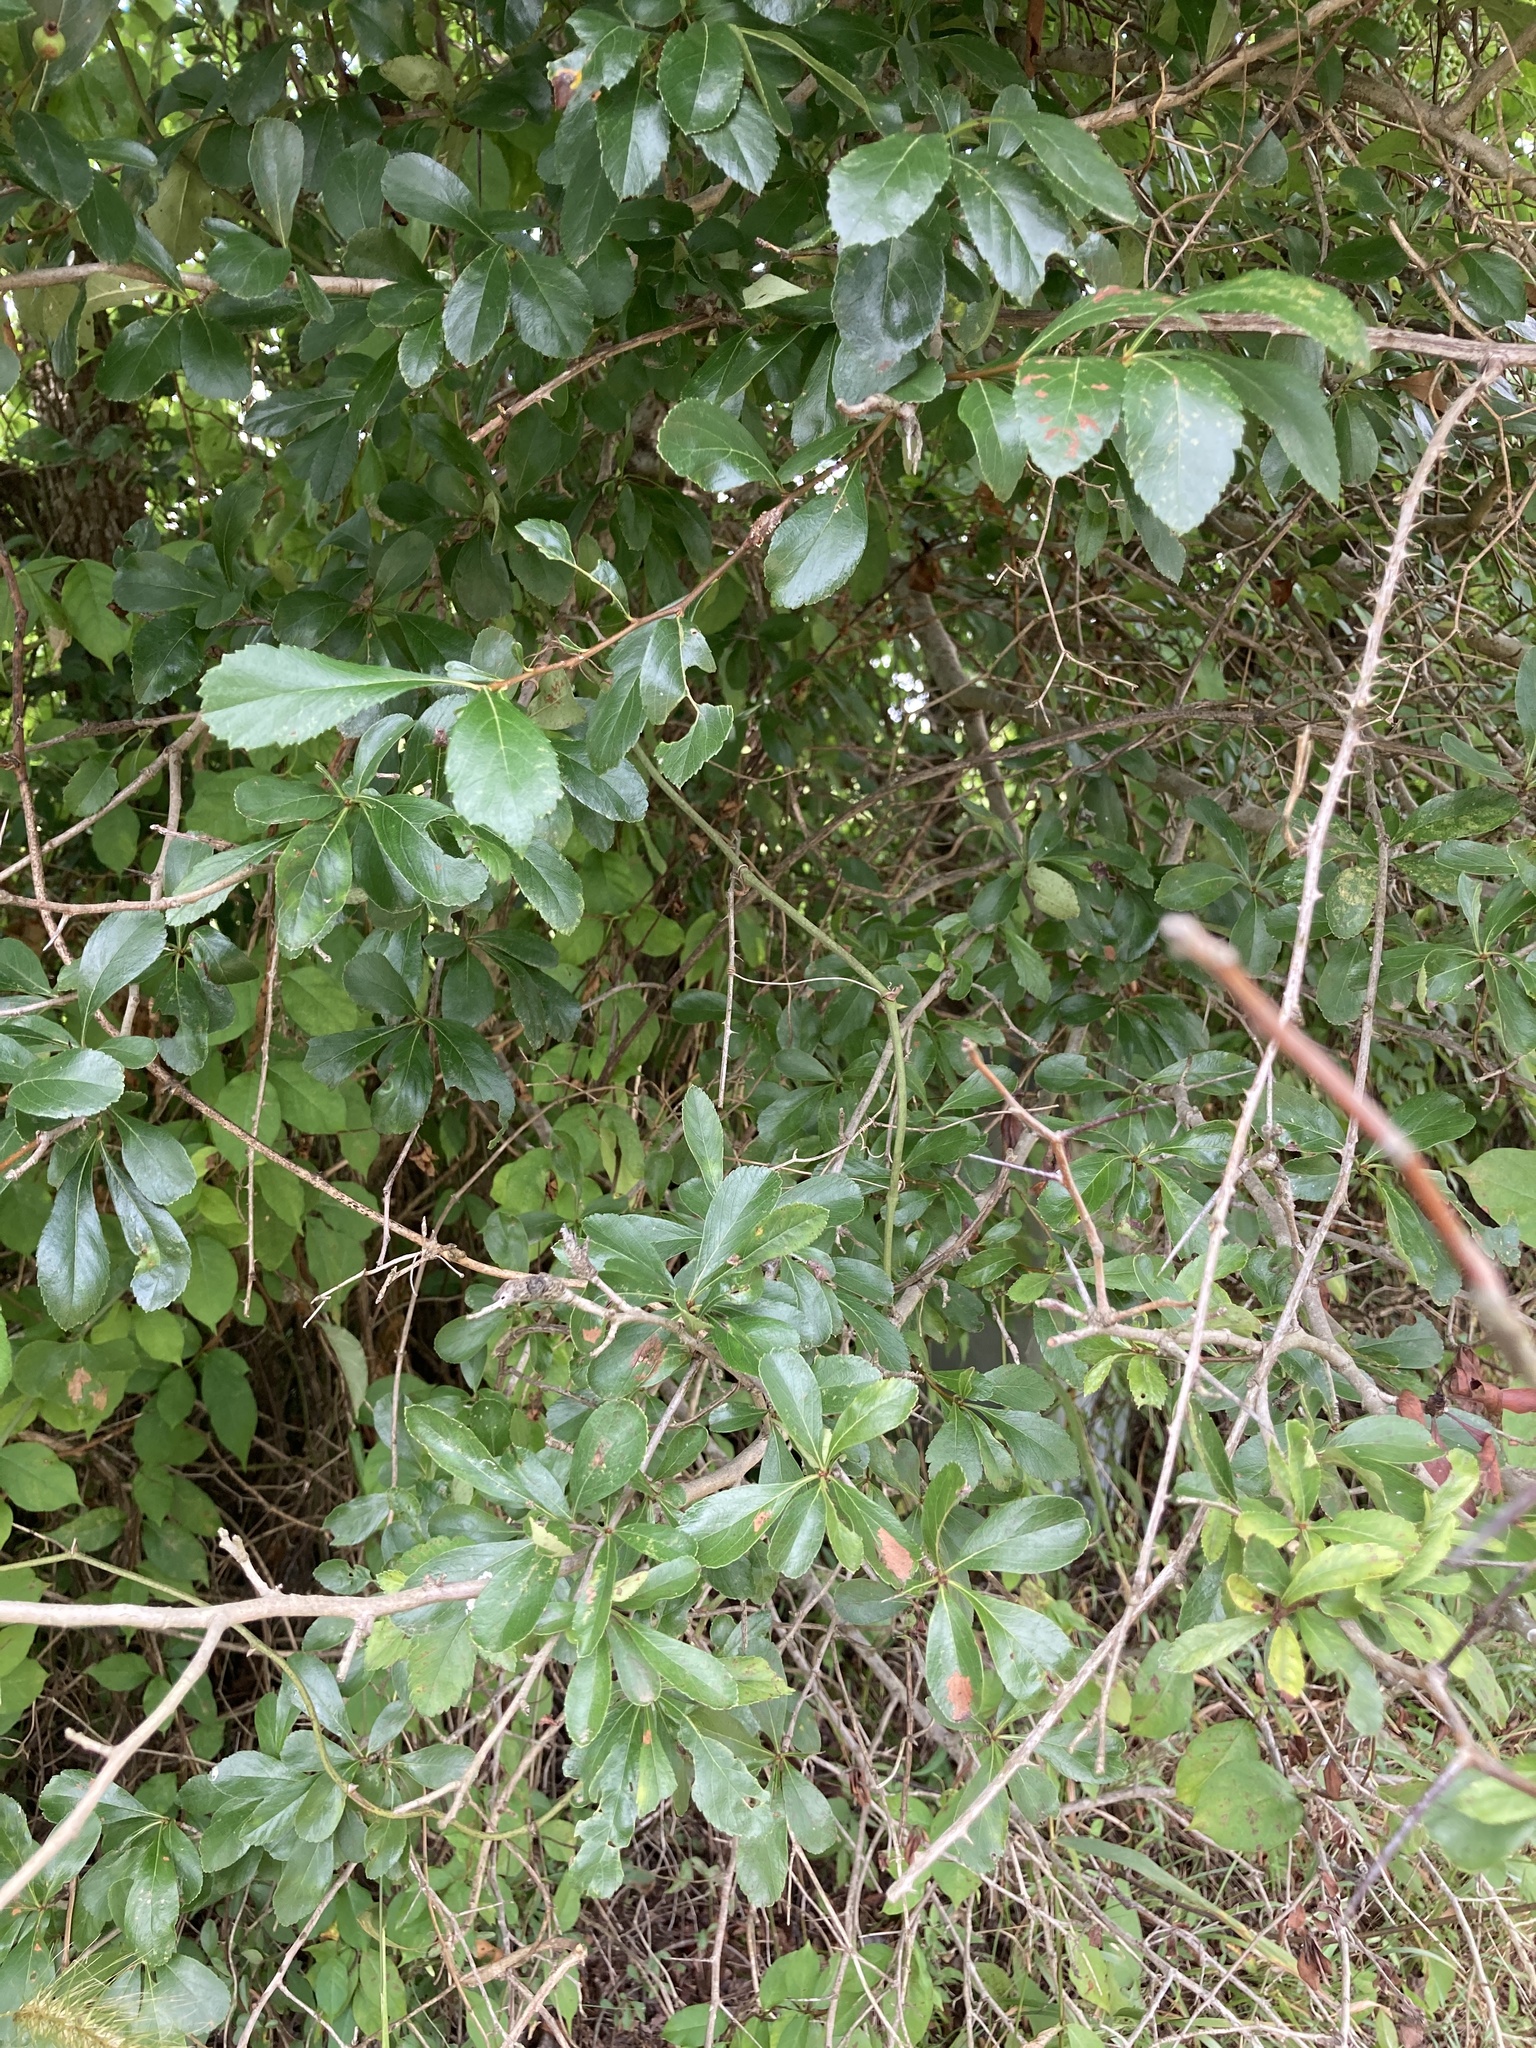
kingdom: Plantae
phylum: Tracheophyta
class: Magnoliopsida
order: Rosales
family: Rosaceae
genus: Crataegus
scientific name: Crataegus berberifolia
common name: Barberry hawthorn
